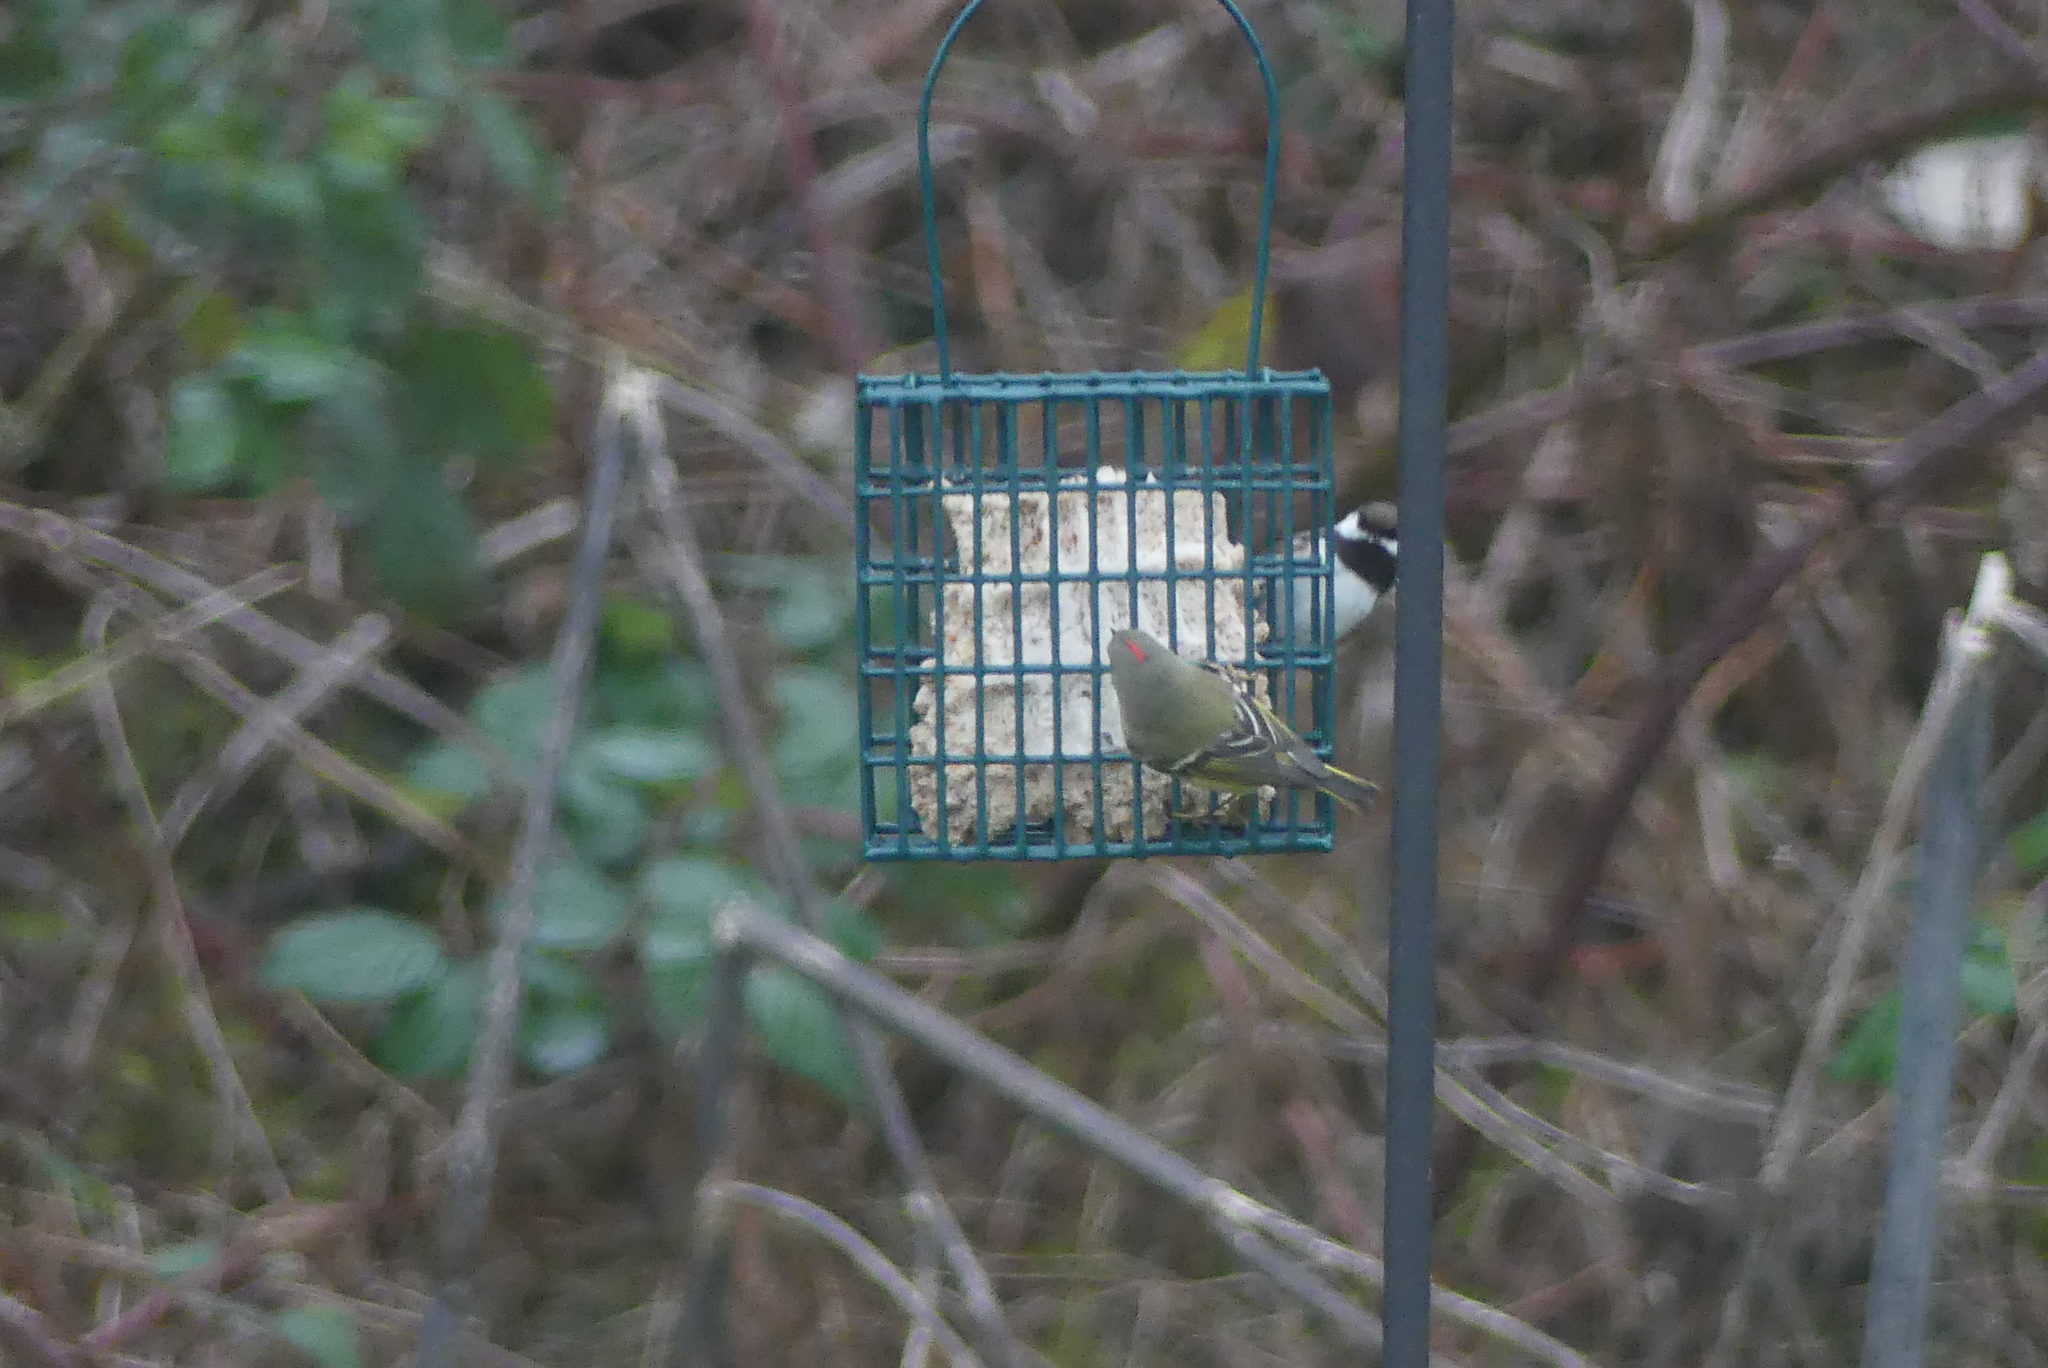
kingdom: Animalia
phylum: Chordata
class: Aves
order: Passeriformes
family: Regulidae
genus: Regulus
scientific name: Regulus calendula
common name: Ruby-crowned kinglet
